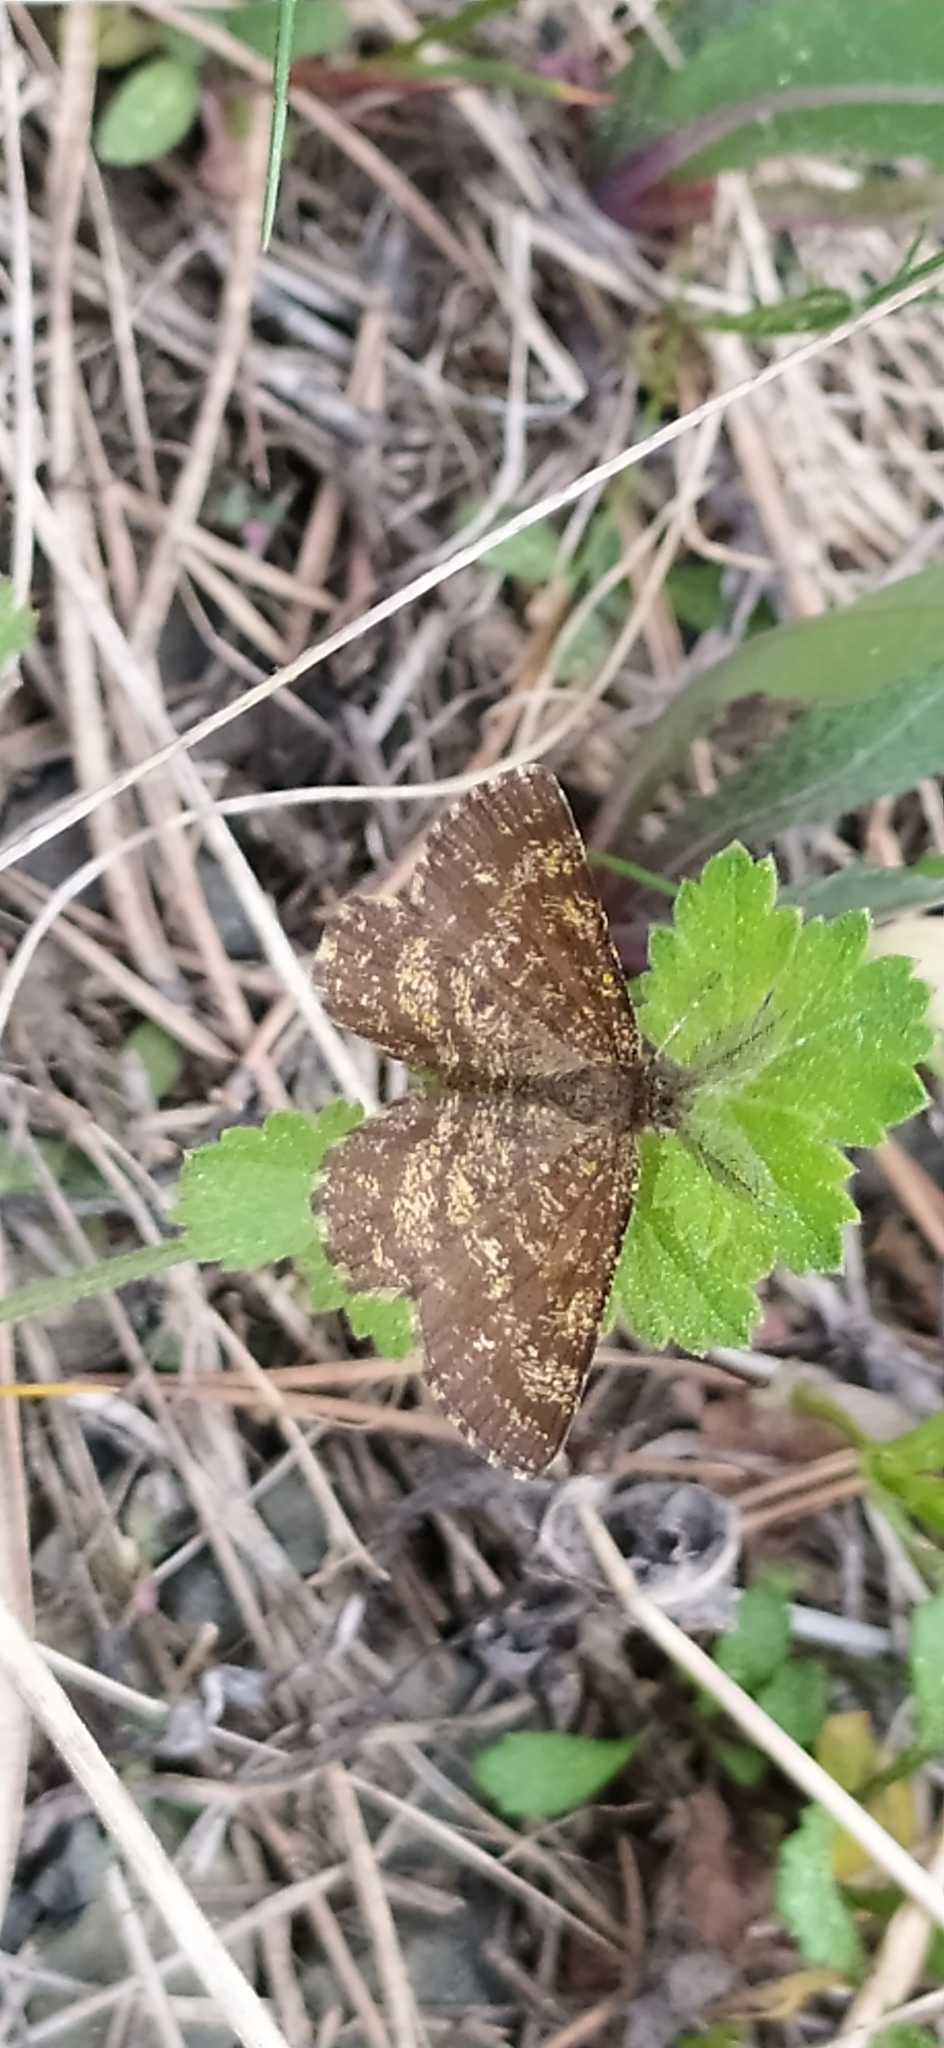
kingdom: Animalia
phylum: Arthropoda
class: Insecta
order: Lepidoptera
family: Geometridae
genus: Ematurga
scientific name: Ematurga atomaria
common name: Common heath
